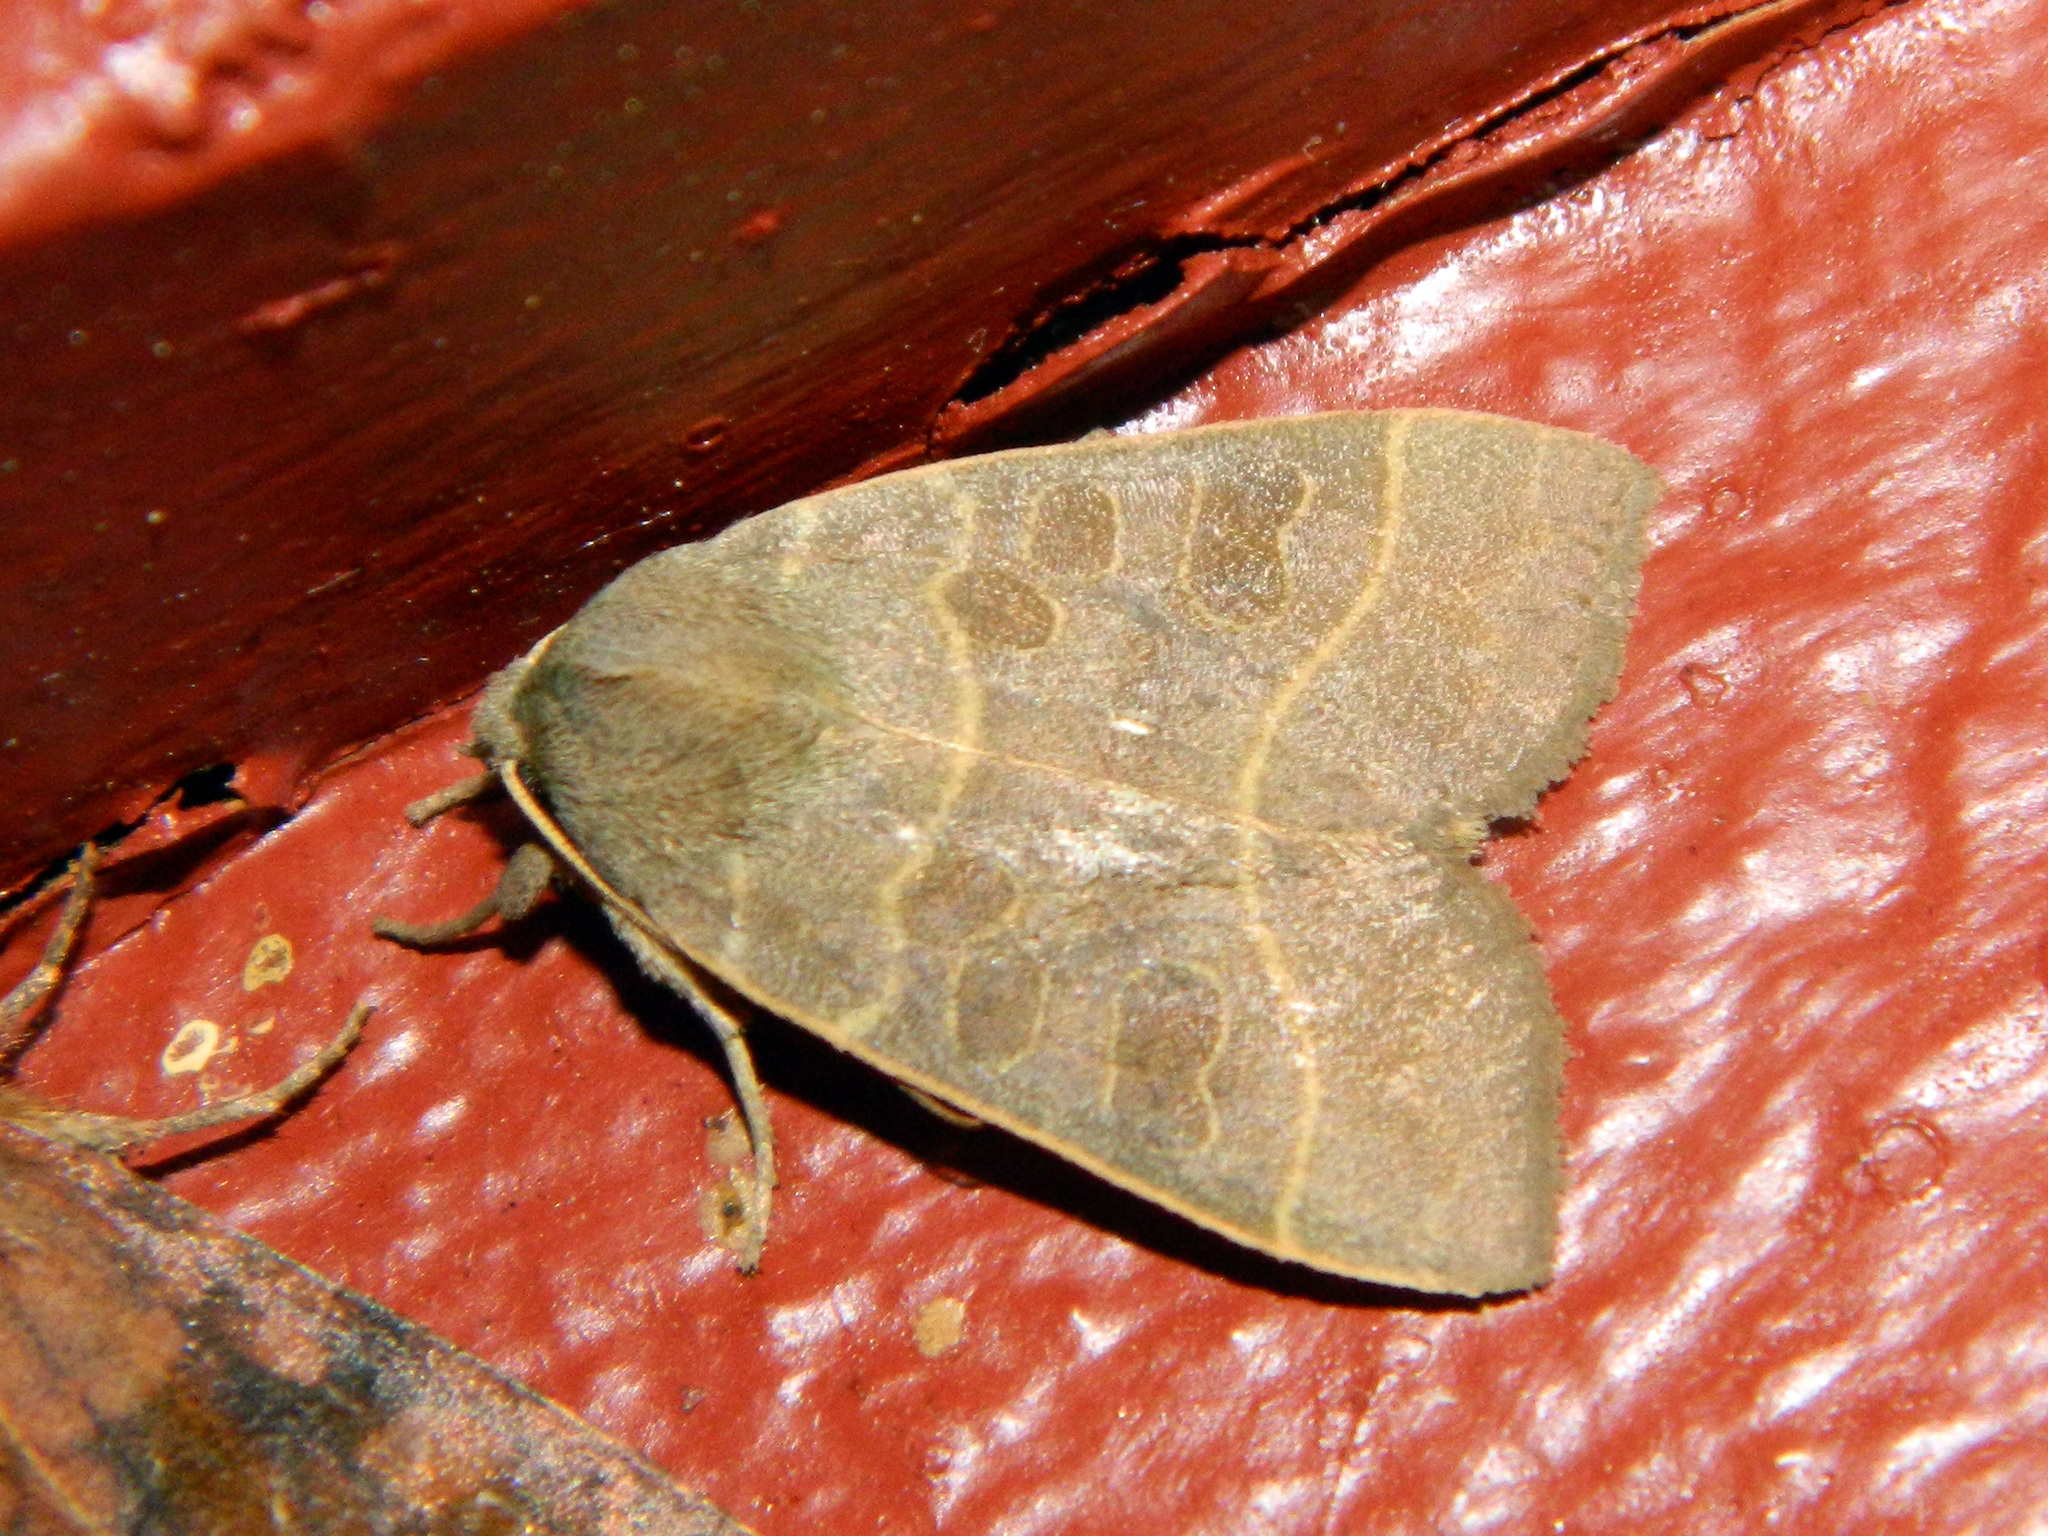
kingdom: Animalia
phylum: Arthropoda
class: Insecta
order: Lepidoptera
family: Noctuidae
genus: Ipimorpha
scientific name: Ipimorpha pleonectusa
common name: Even-lined sallow
